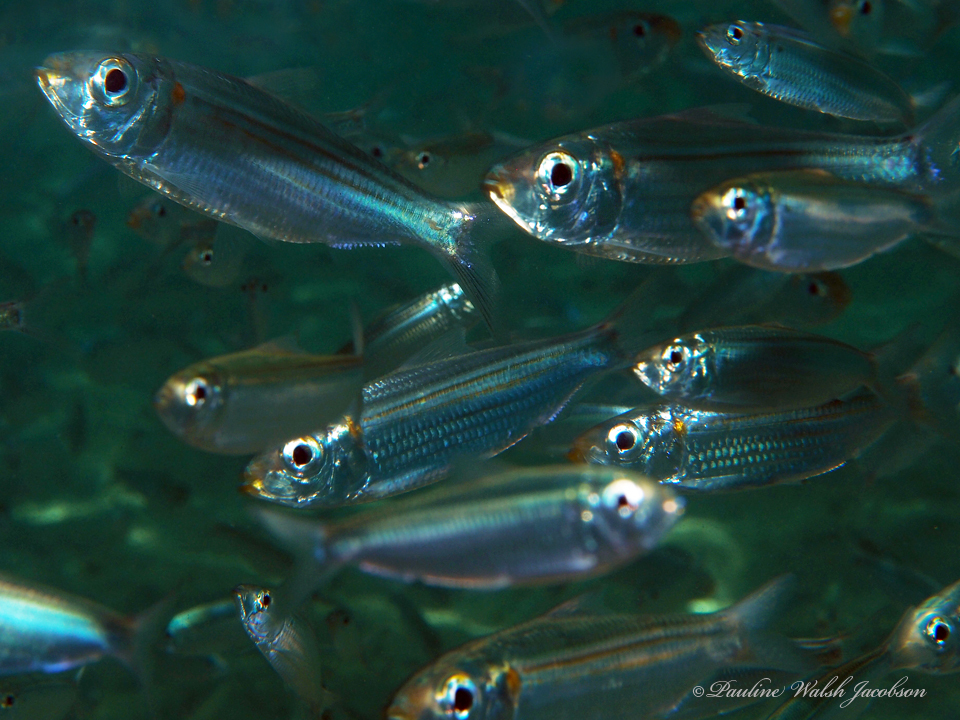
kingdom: Animalia
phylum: Chordata
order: Clupeiformes
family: Clupeidae
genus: Harengula
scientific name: Harengula humeralis
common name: Red-ear pilchard
